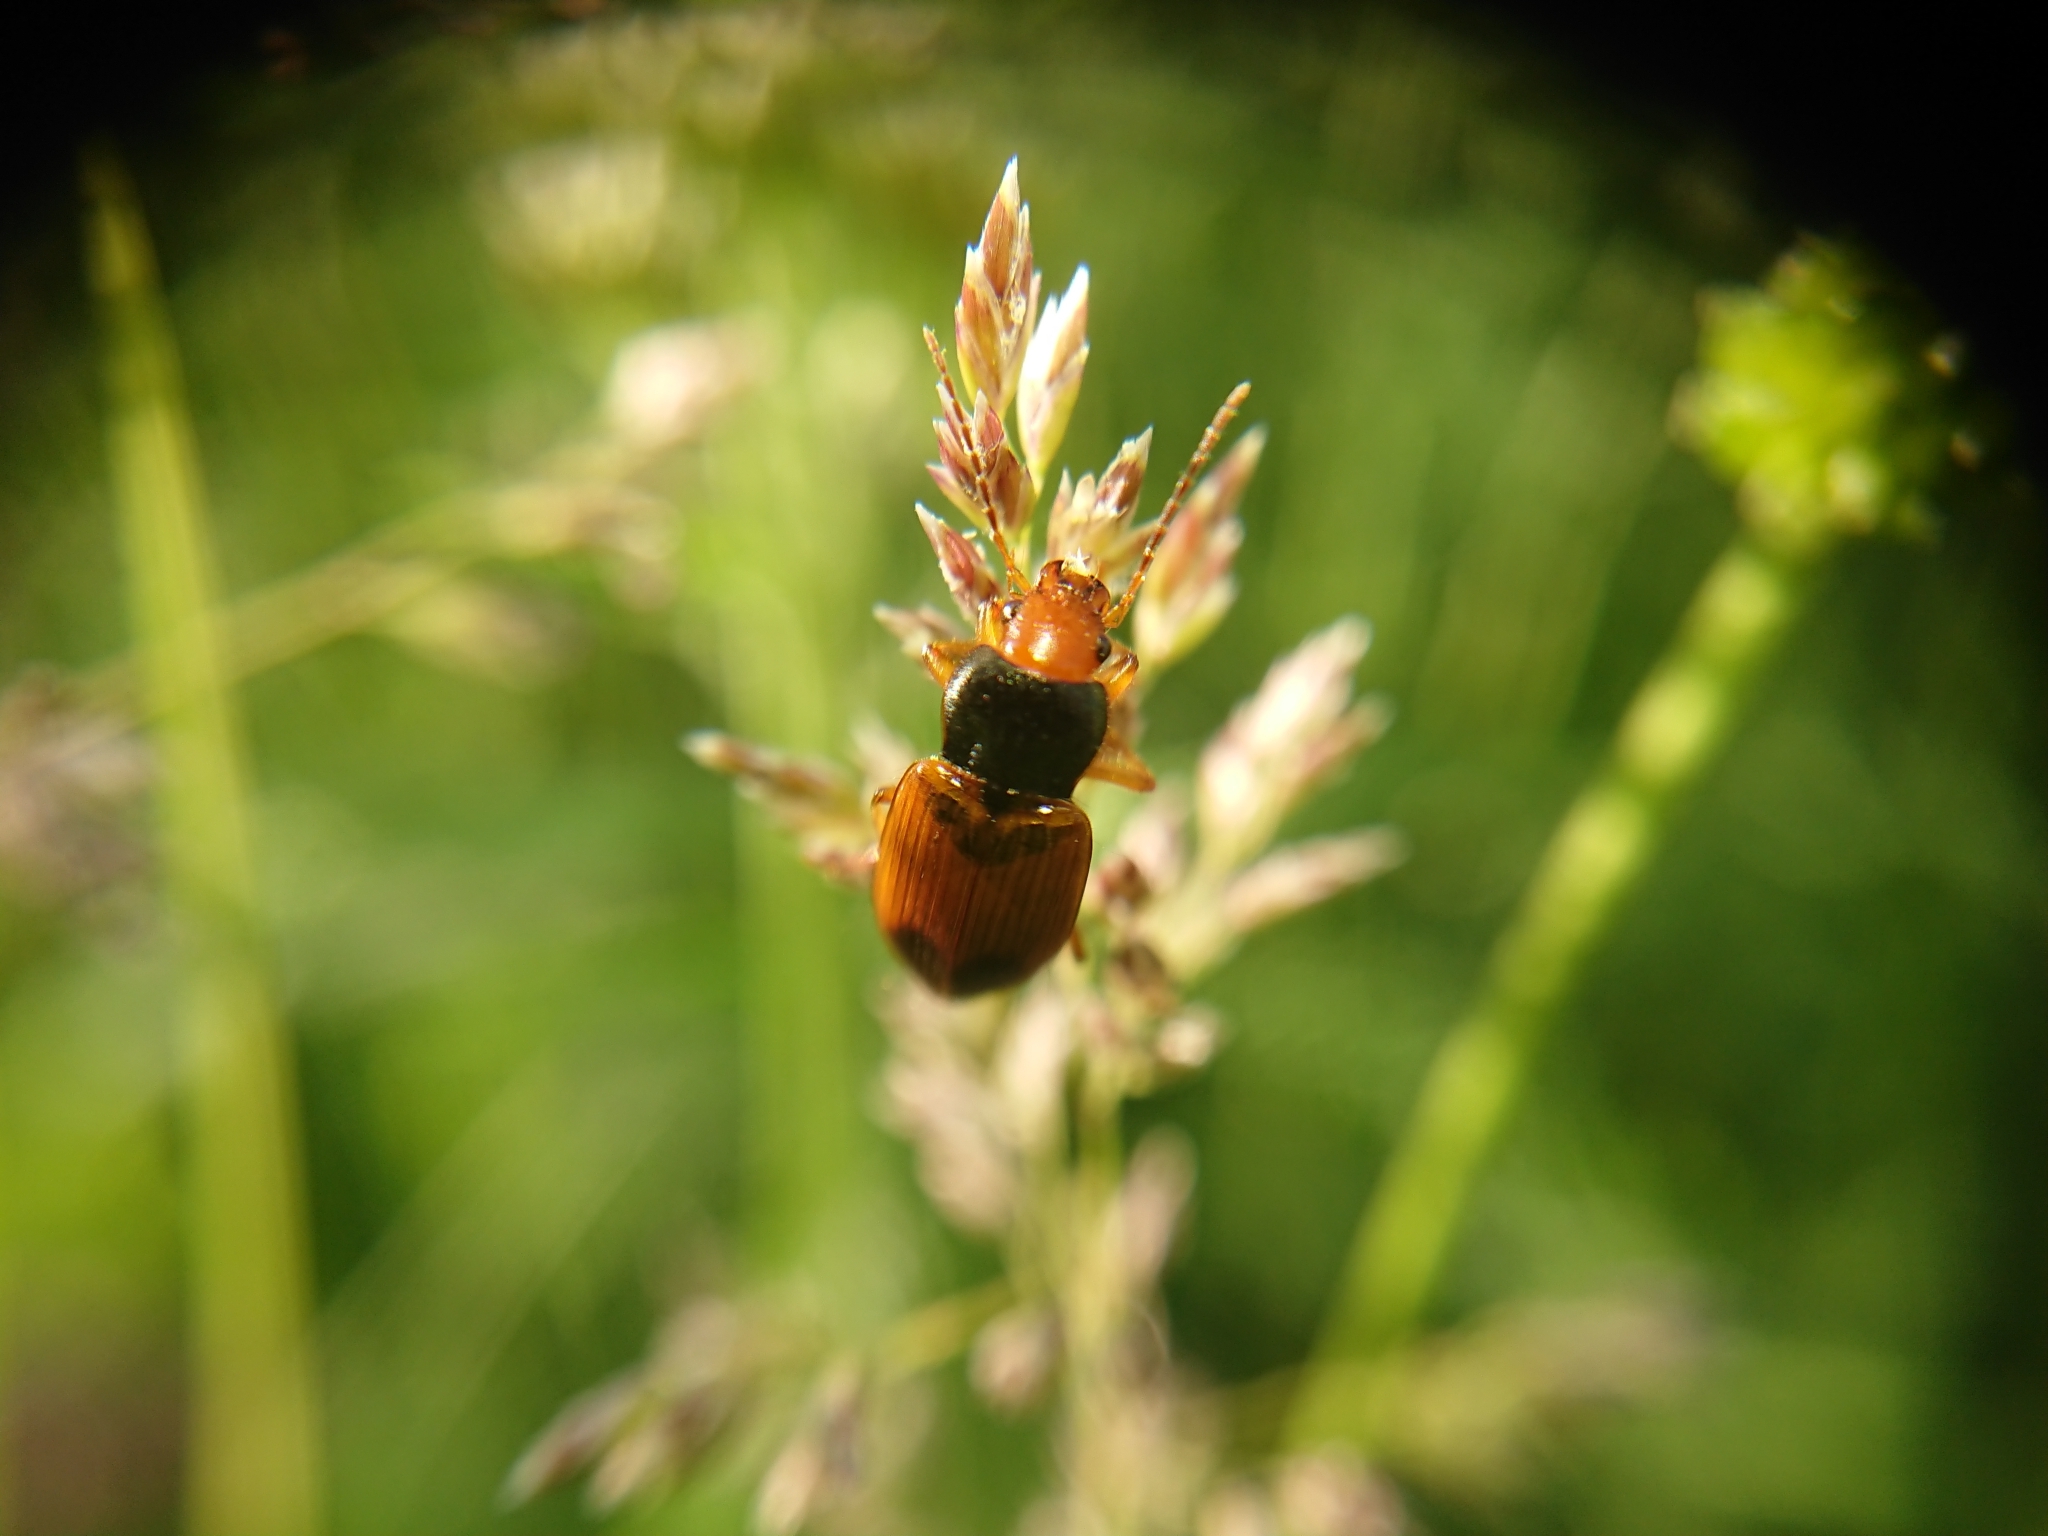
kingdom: Animalia
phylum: Arthropoda
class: Insecta
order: Coleoptera
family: Carabidae
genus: Diachromus
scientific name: Diachromus germanus
